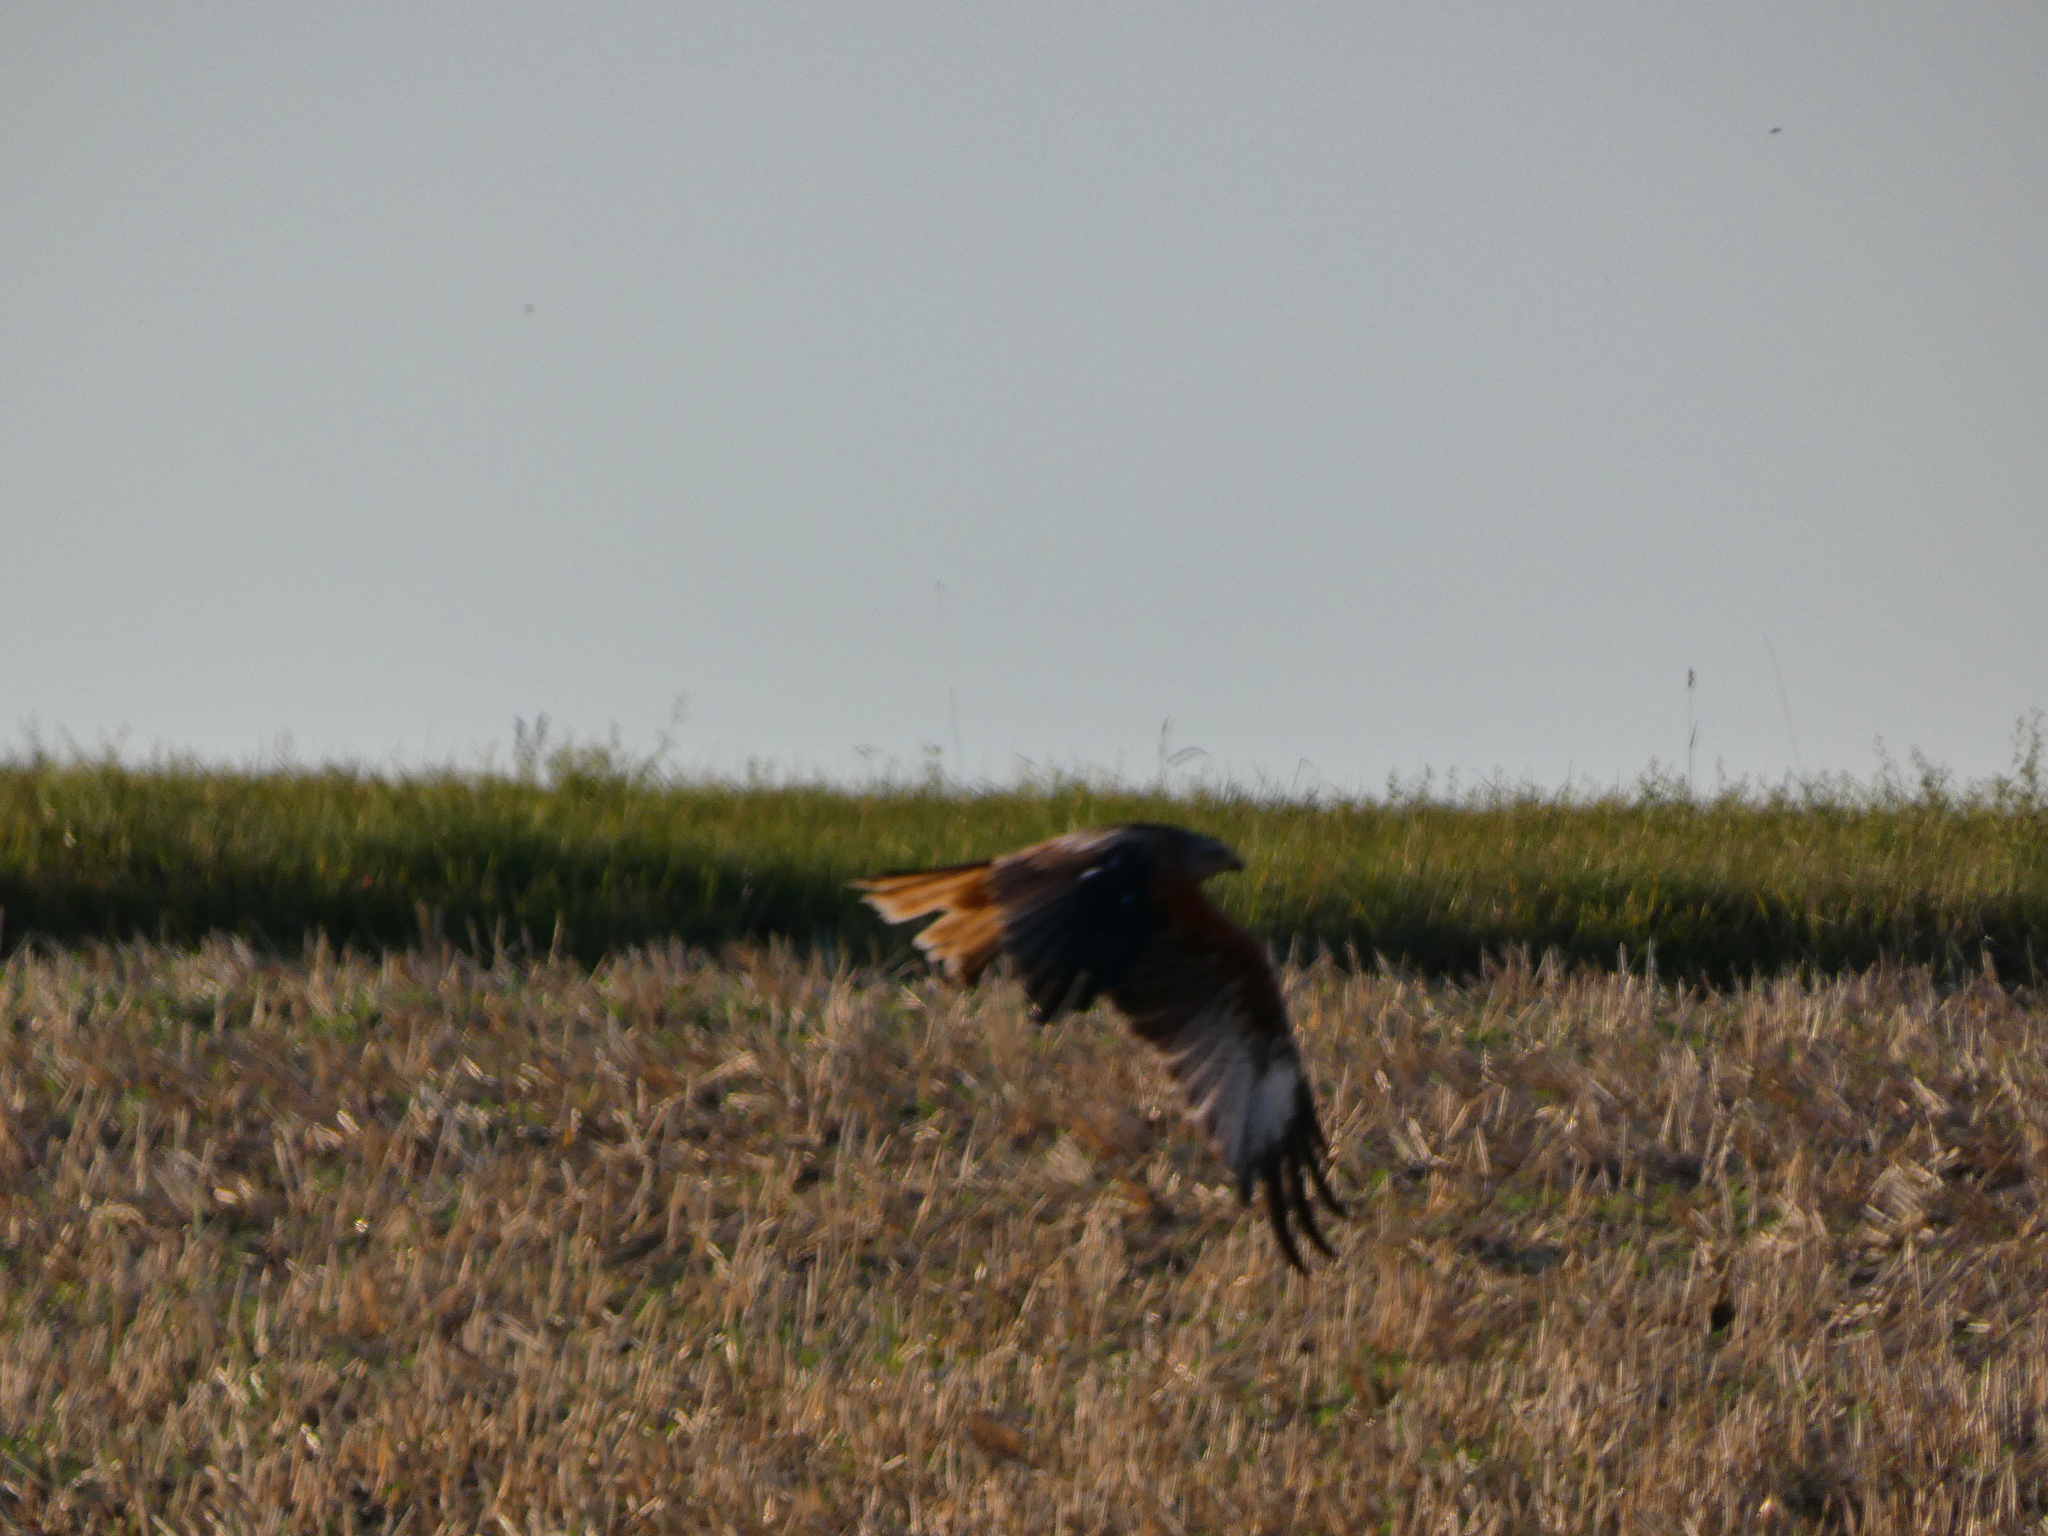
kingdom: Animalia
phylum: Chordata
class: Aves
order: Accipitriformes
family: Accipitridae
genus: Milvus
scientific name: Milvus milvus
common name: Red kite
